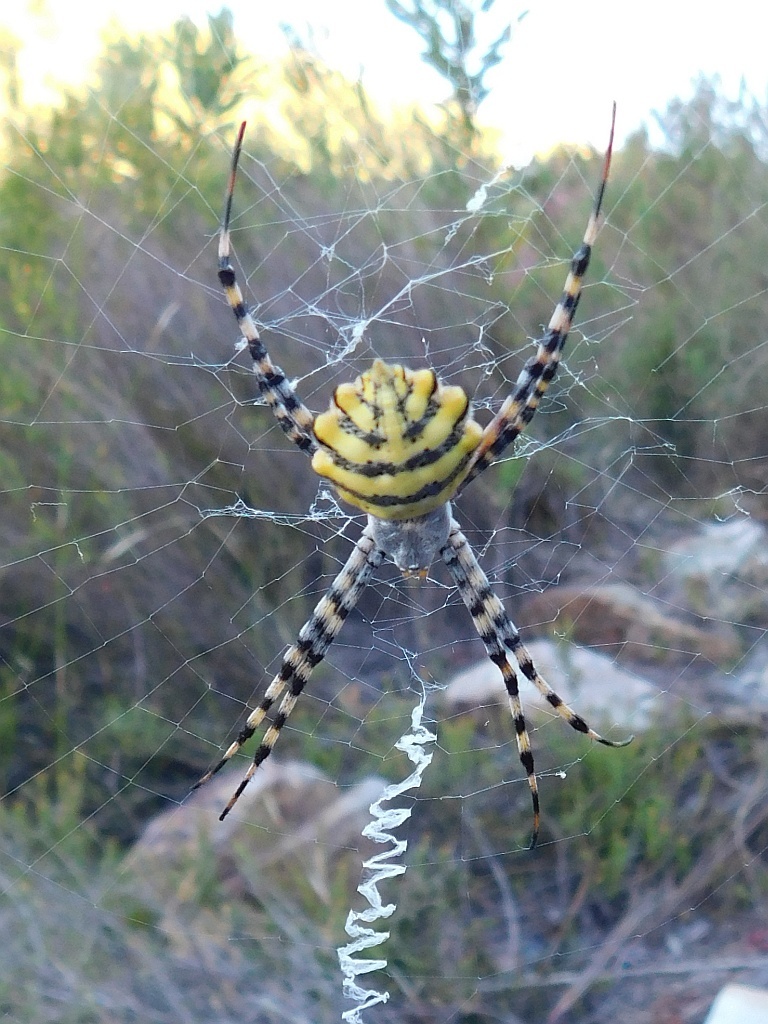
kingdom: Animalia
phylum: Arthropoda
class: Arachnida
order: Araneae
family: Araneidae
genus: Argiope
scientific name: Argiope australis
